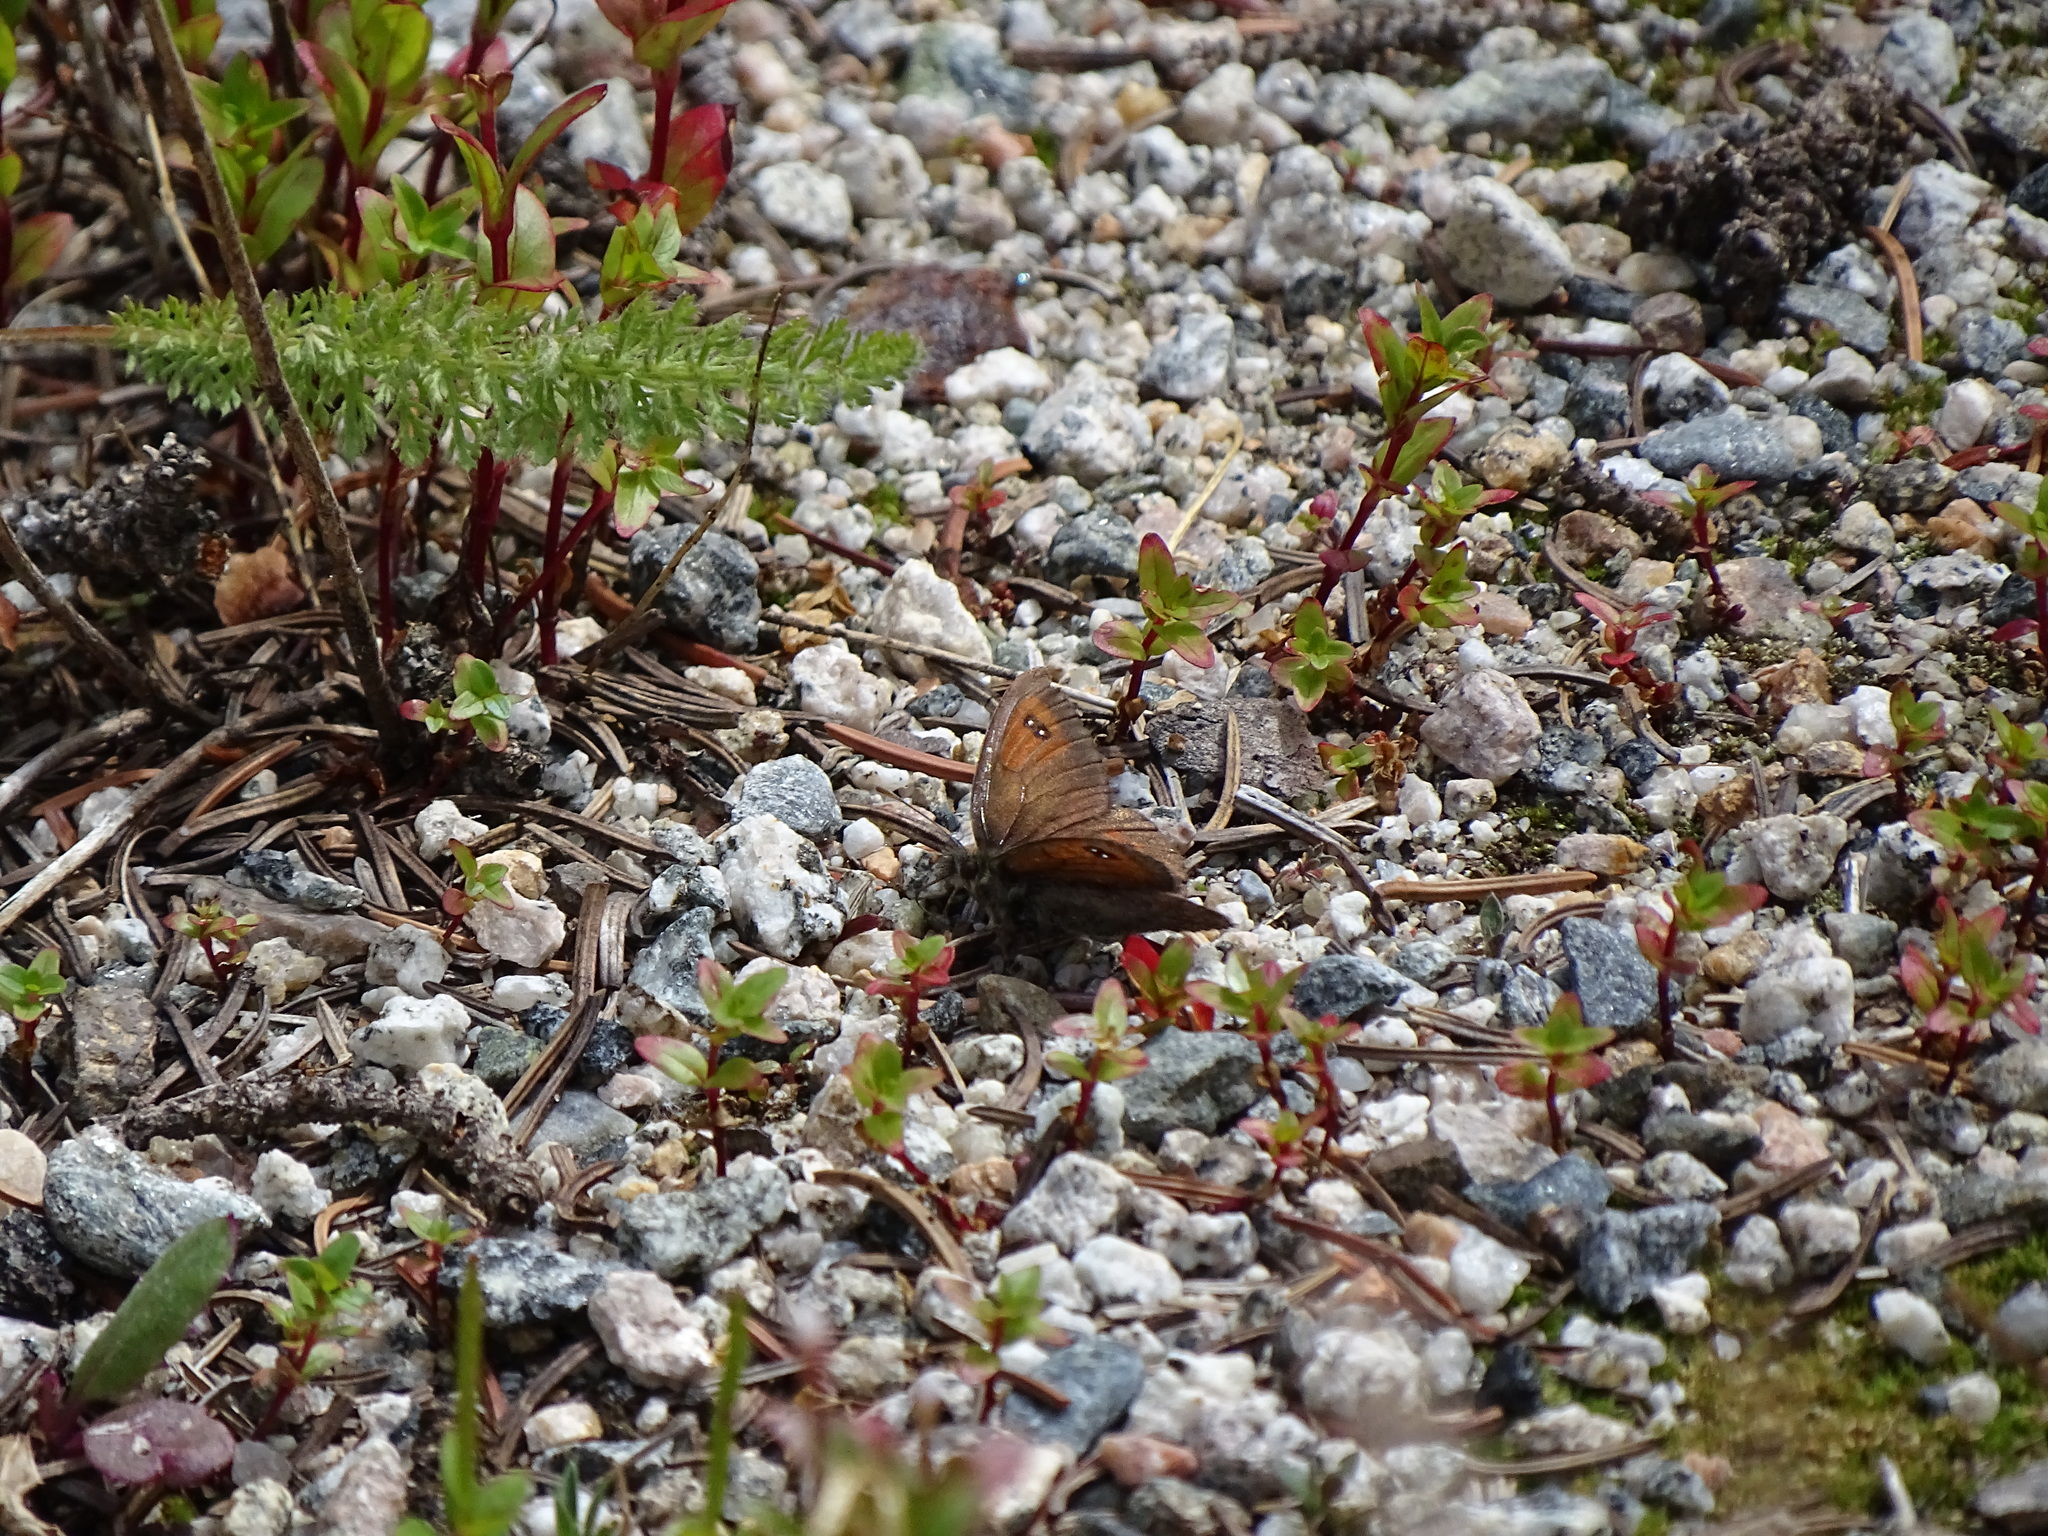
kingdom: Animalia
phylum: Arthropoda
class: Insecta
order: Lepidoptera
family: Nymphalidae
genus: Erebia
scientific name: Erebia tyndarus
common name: Swiss brassy ringlet
